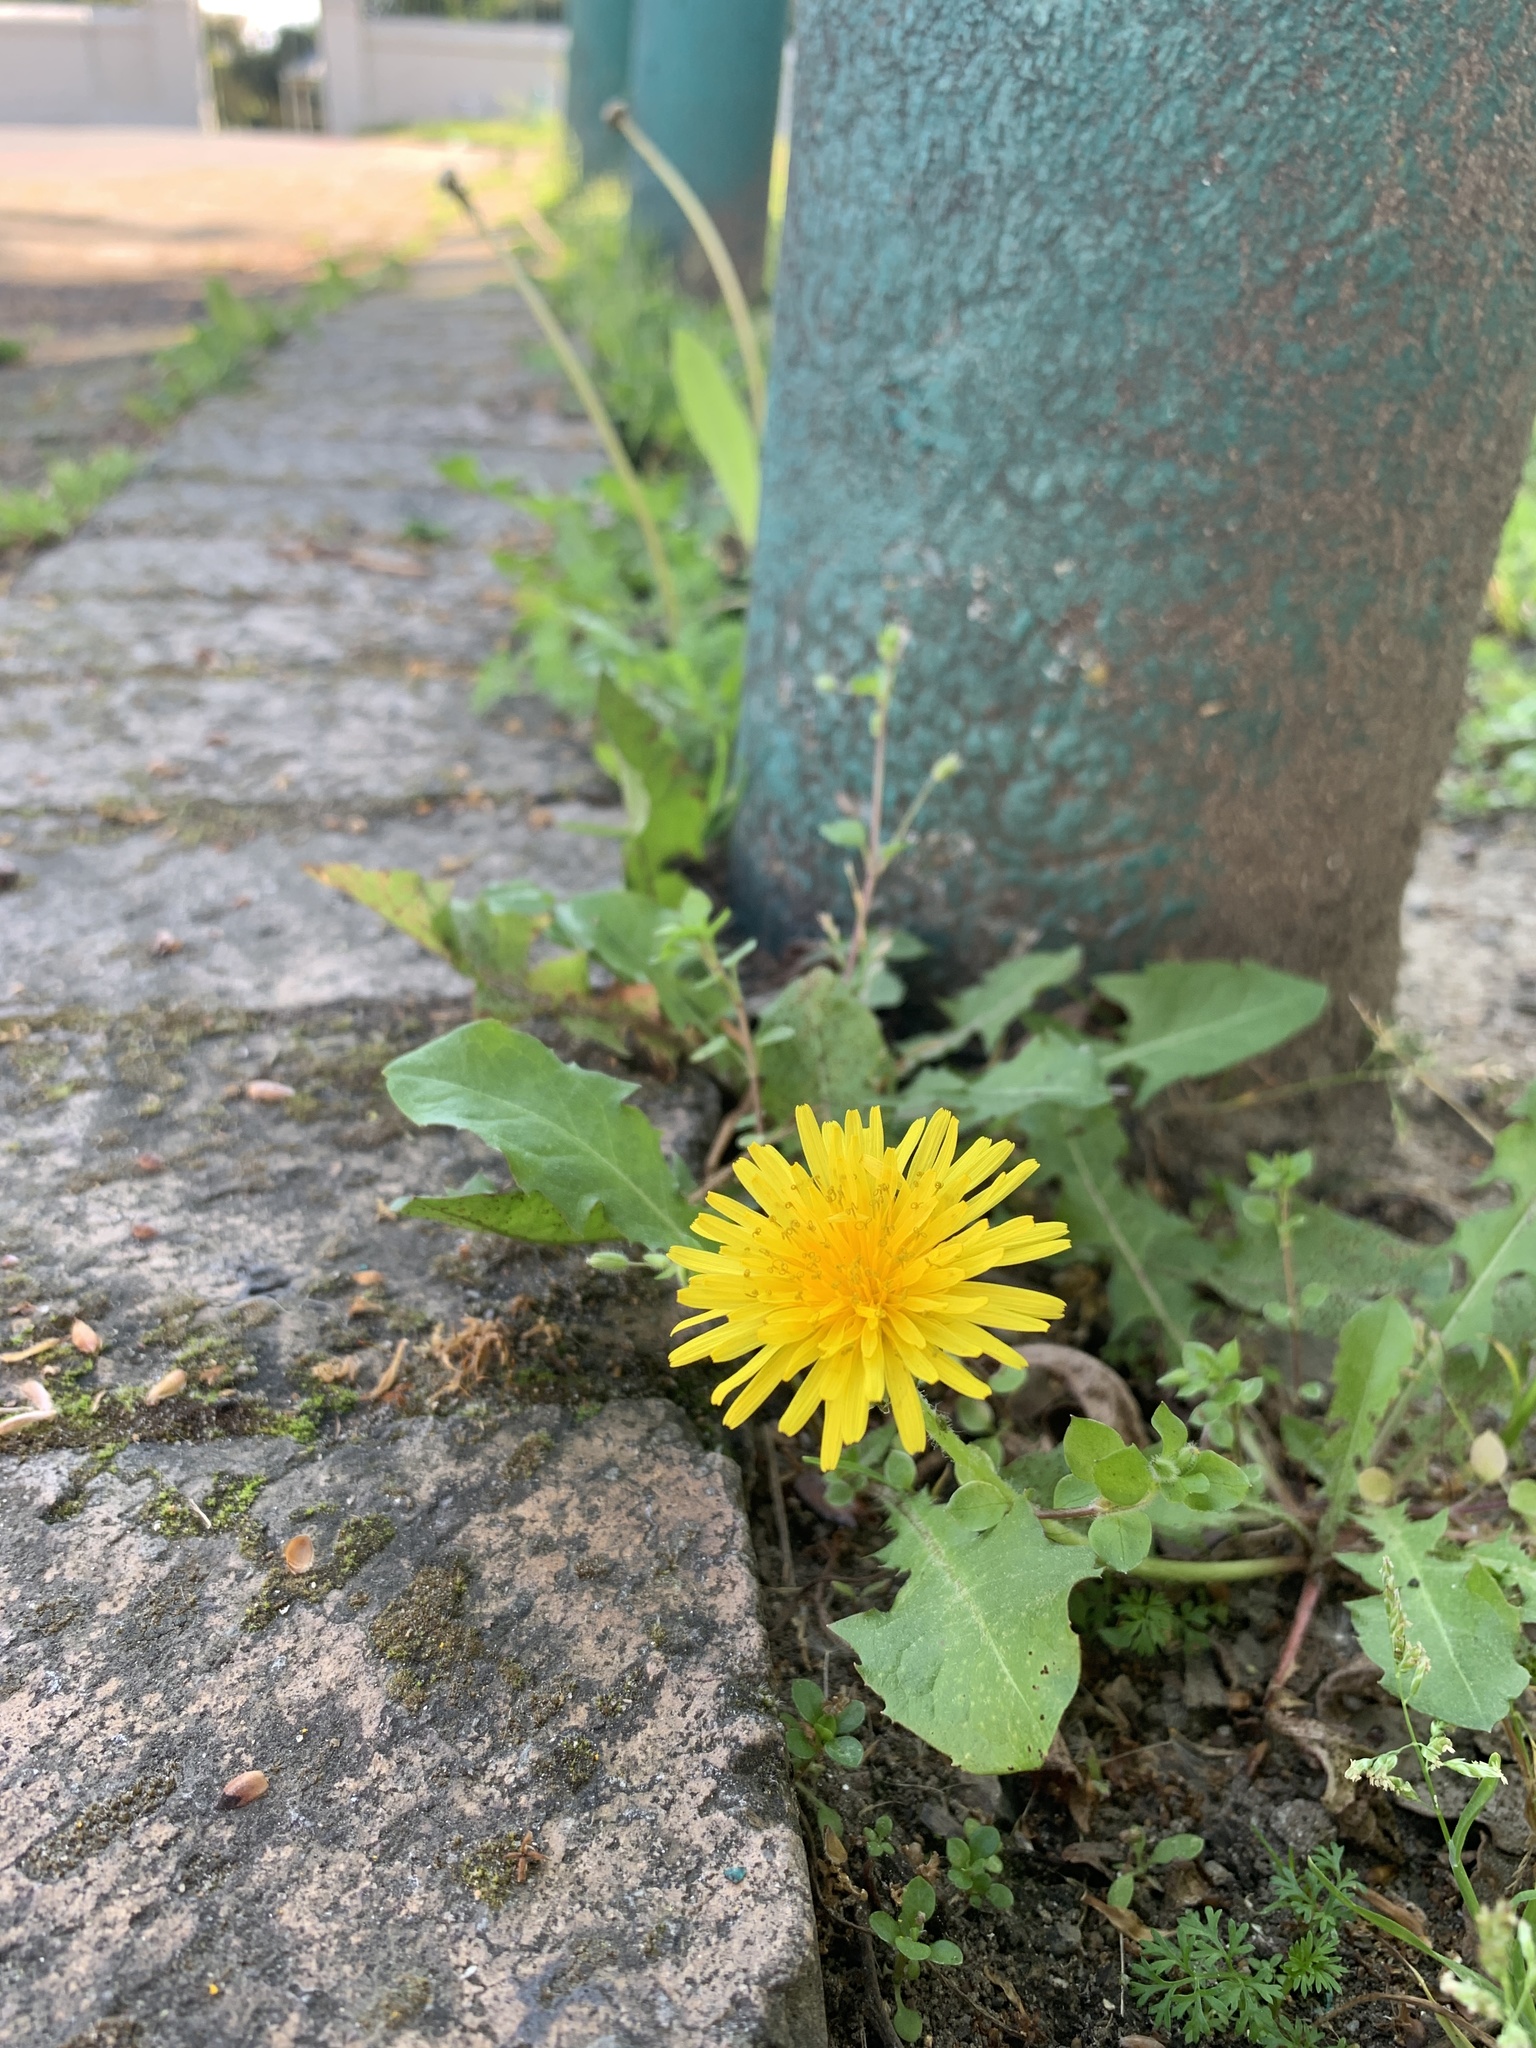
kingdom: Plantae
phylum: Tracheophyta
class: Magnoliopsida
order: Asterales
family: Asteraceae
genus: Taraxacum
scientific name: Taraxacum officinale
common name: Common dandelion
